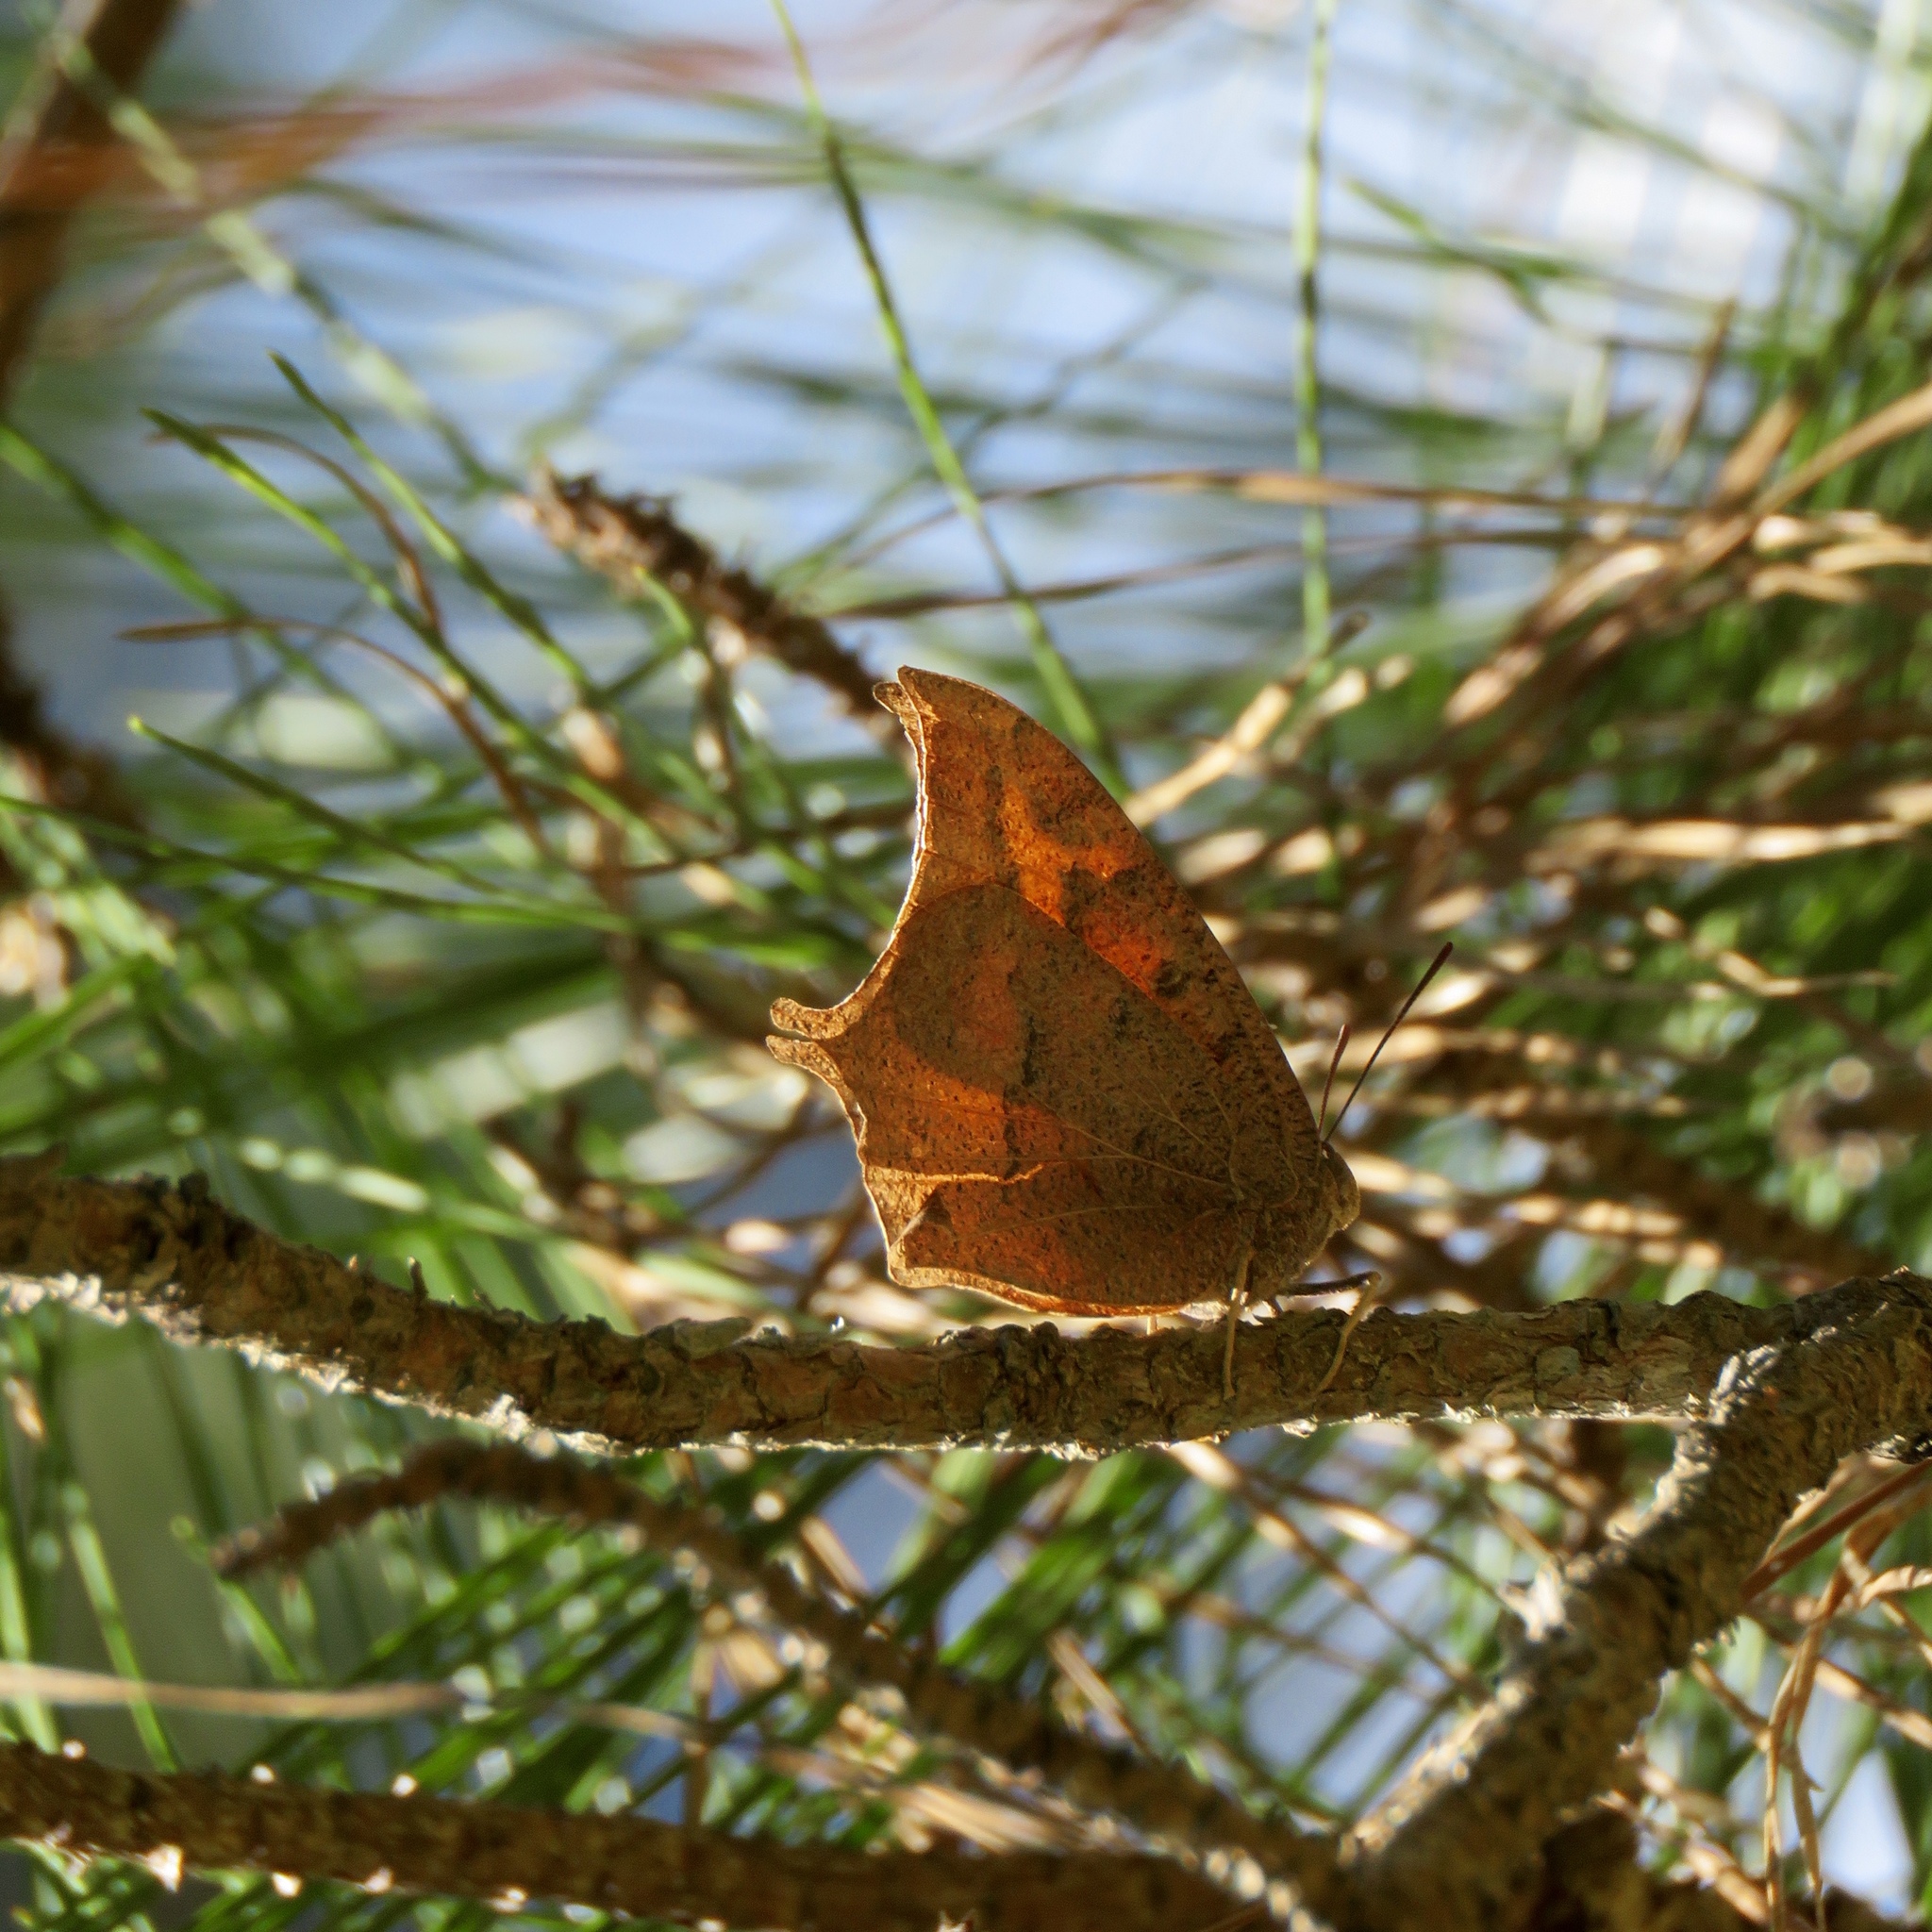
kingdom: Animalia
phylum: Arthropoda
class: Insecta
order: Lepidoptera
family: Nymphalidae
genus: Anaea
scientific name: Anaea andria
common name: Goatweed leafwing
